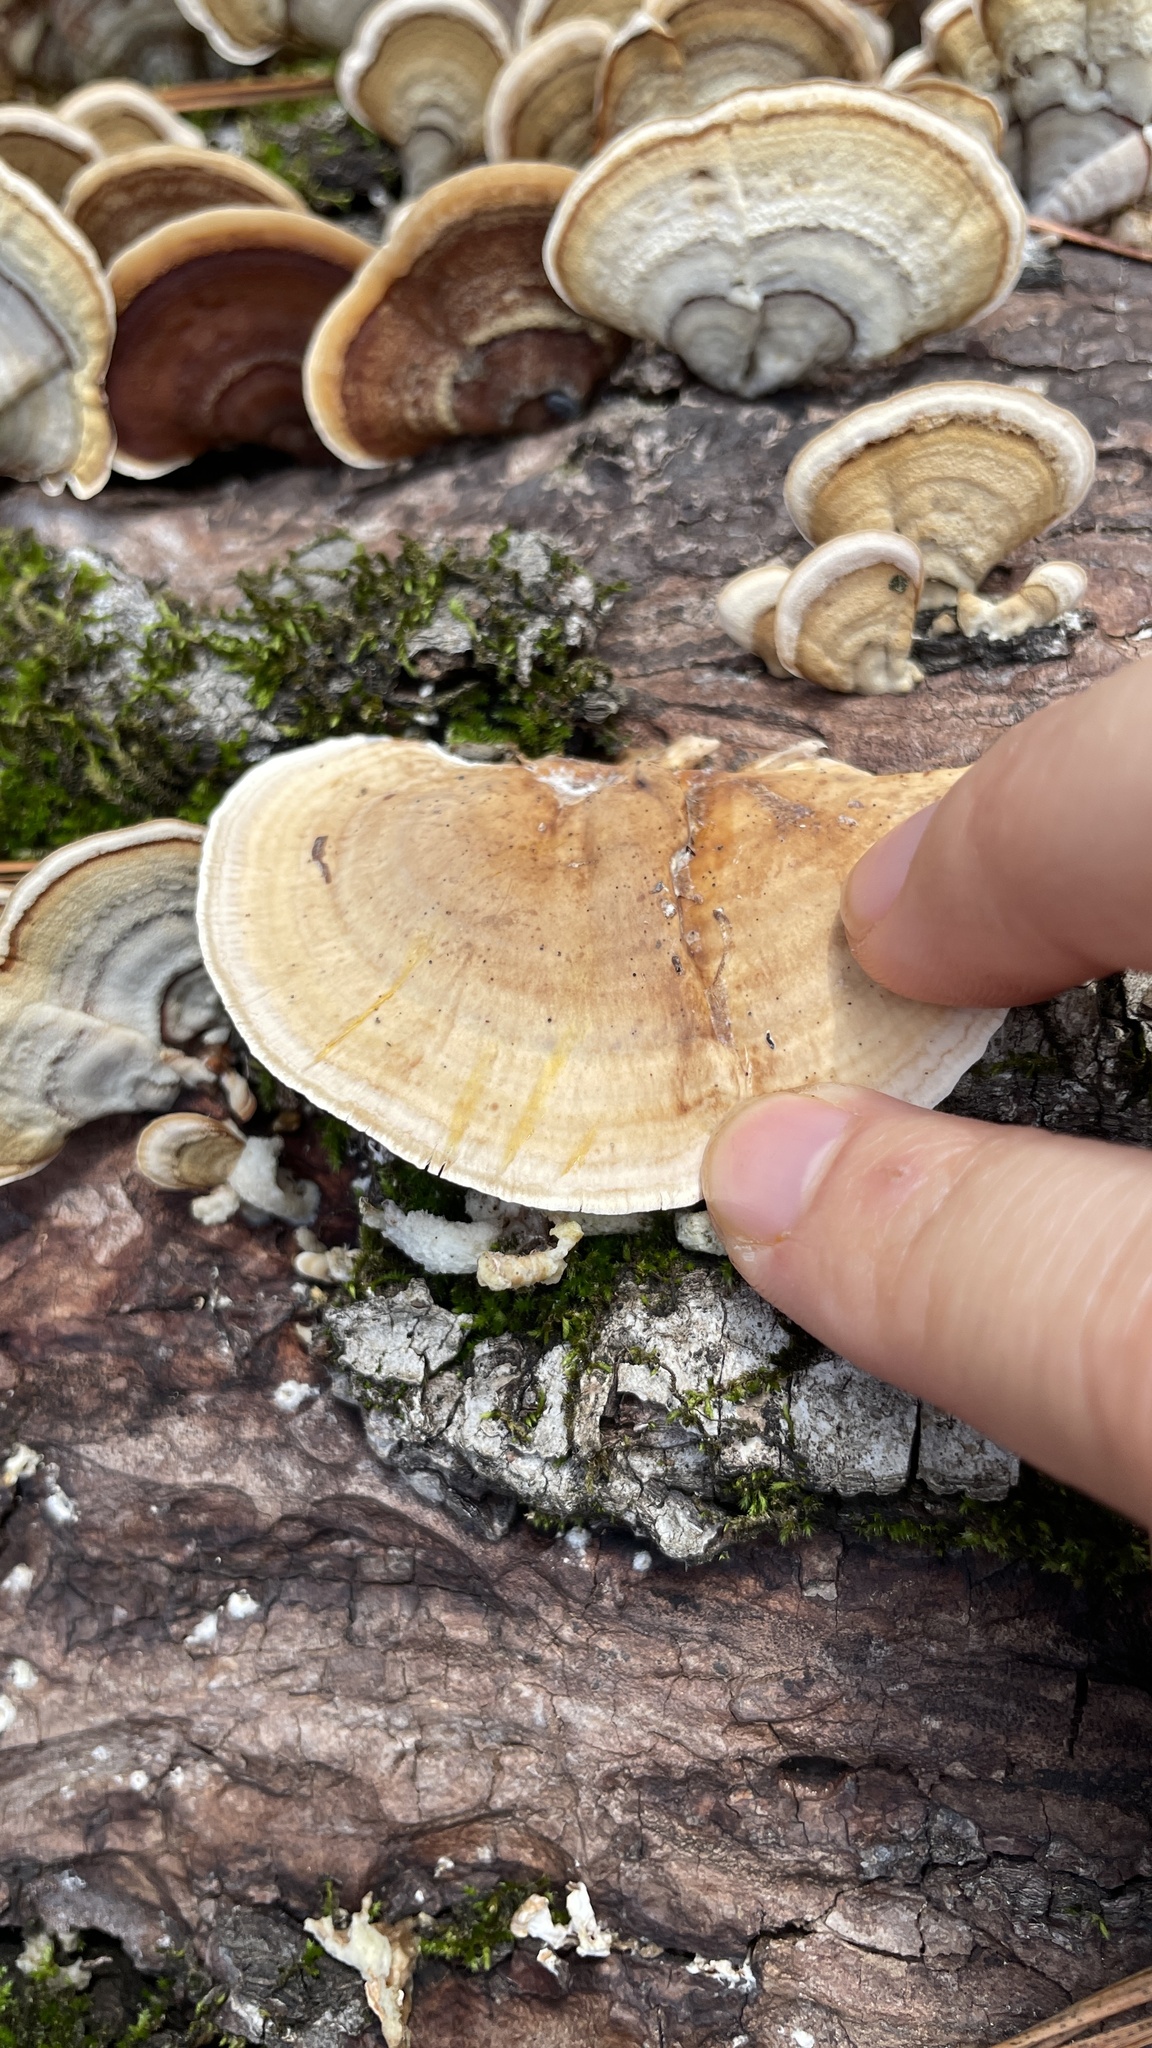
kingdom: Fungi
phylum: Basidiomycota
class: Agaricomycetes
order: Russulales
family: Stereaceae
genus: Stereum
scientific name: Stereum lobatum
